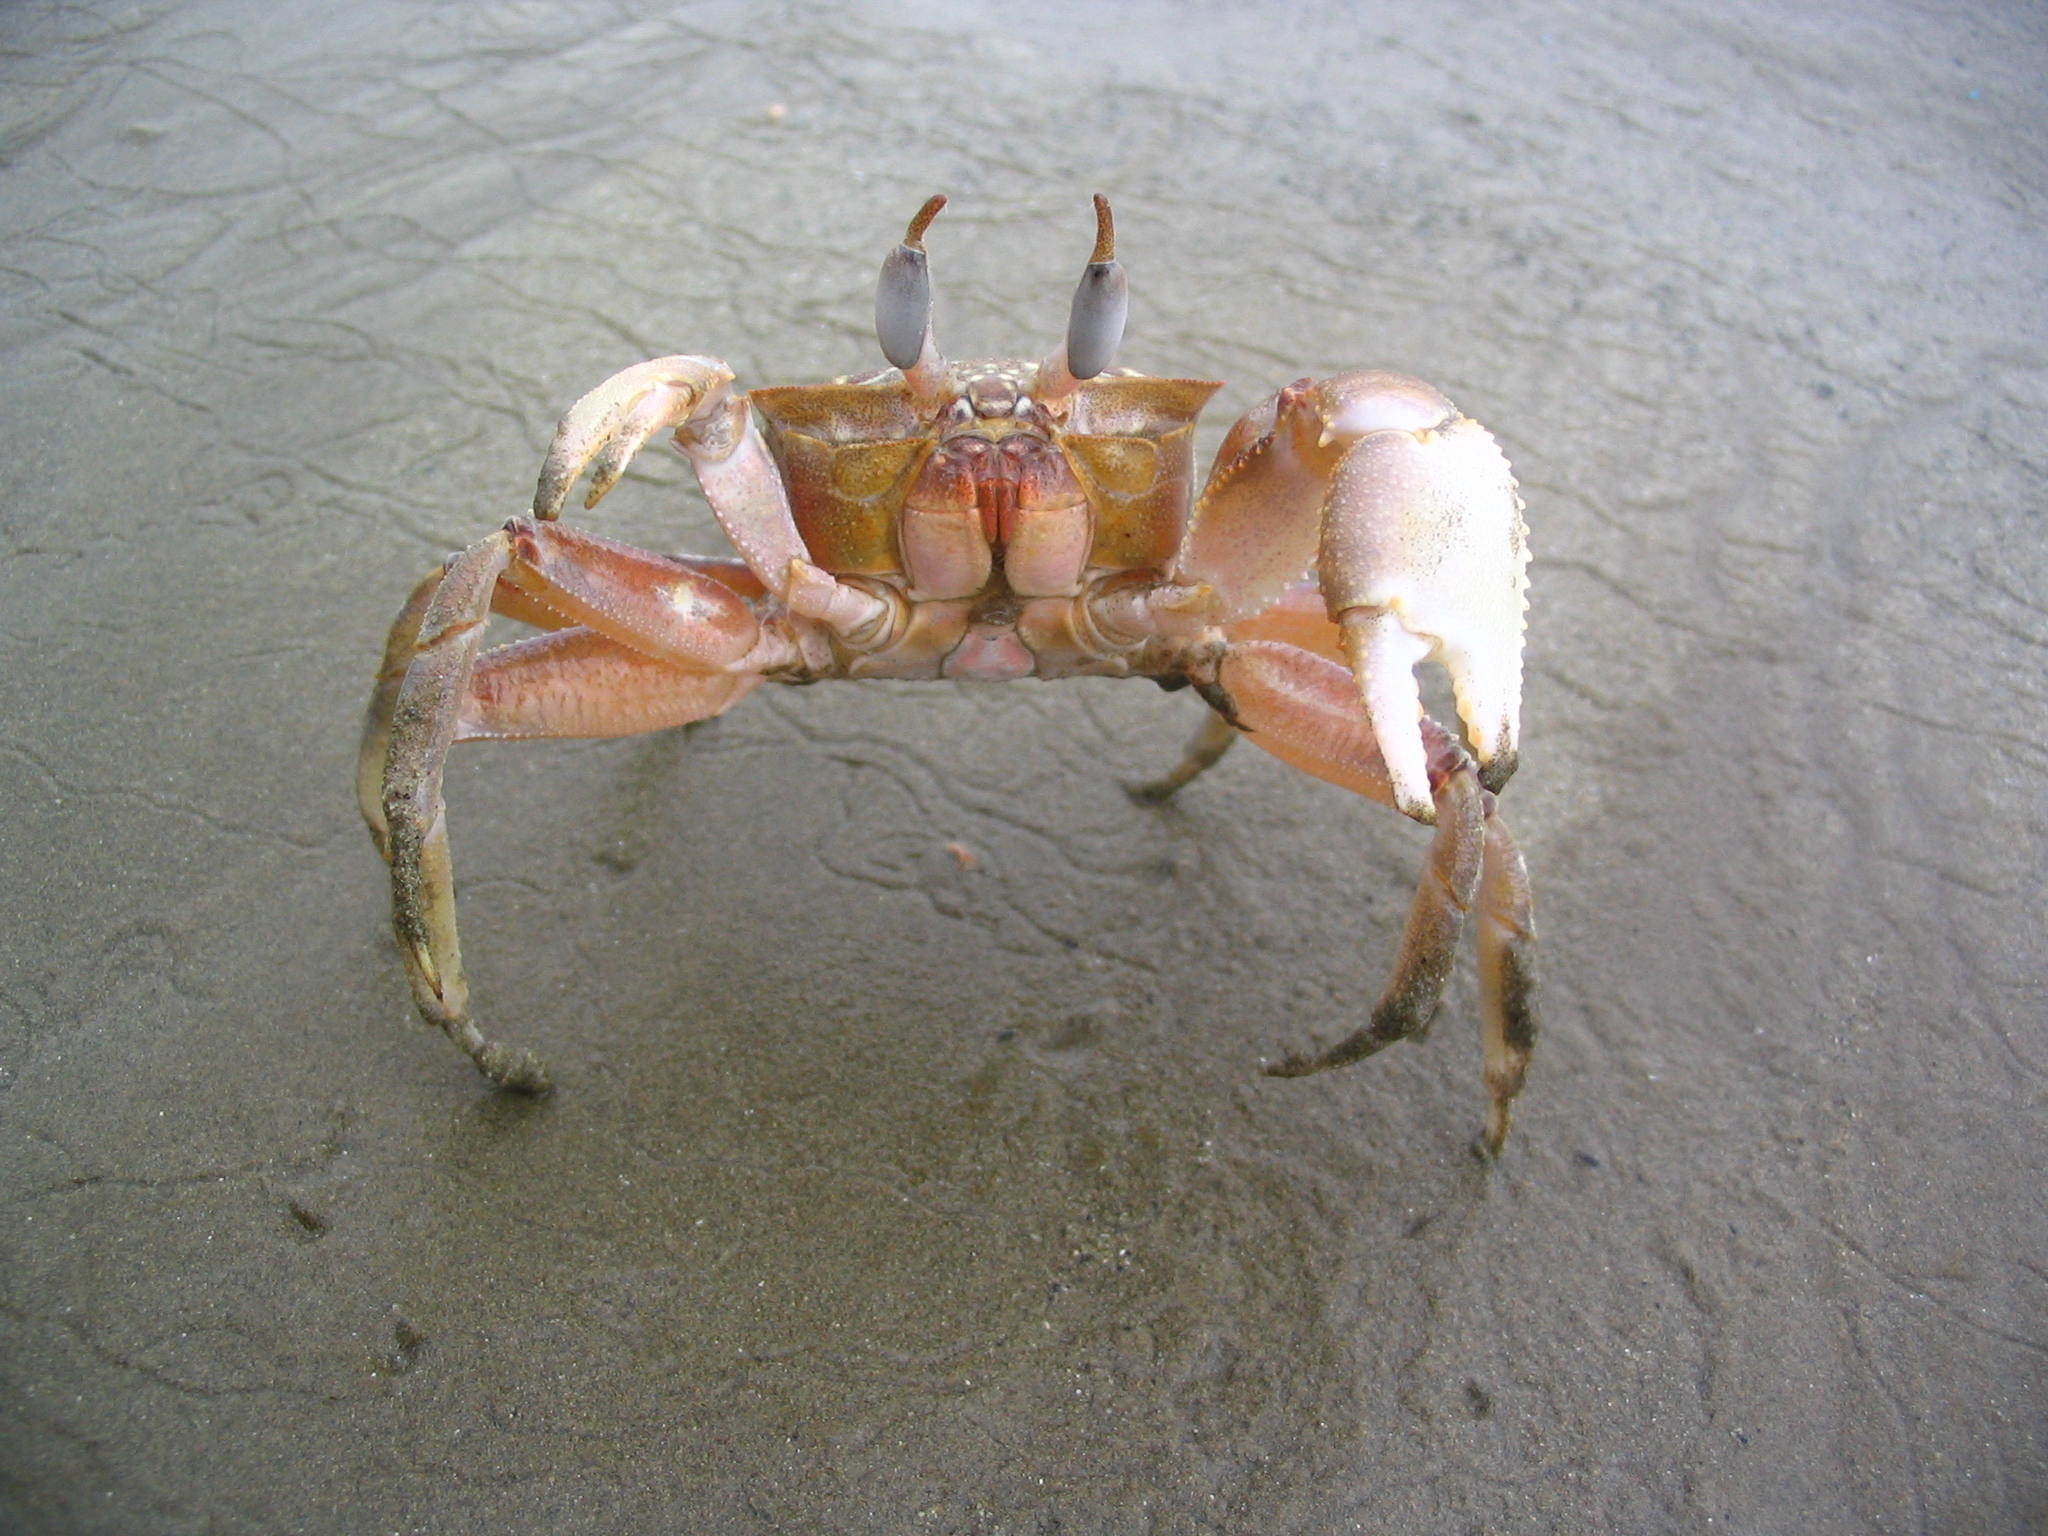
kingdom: Animalia
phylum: Arthropoda
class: Malacostraca
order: Decapoda
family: Ocypodidae
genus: Ocypode
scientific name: Ocypode gaudichaudii
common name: Pacific ghost crab
